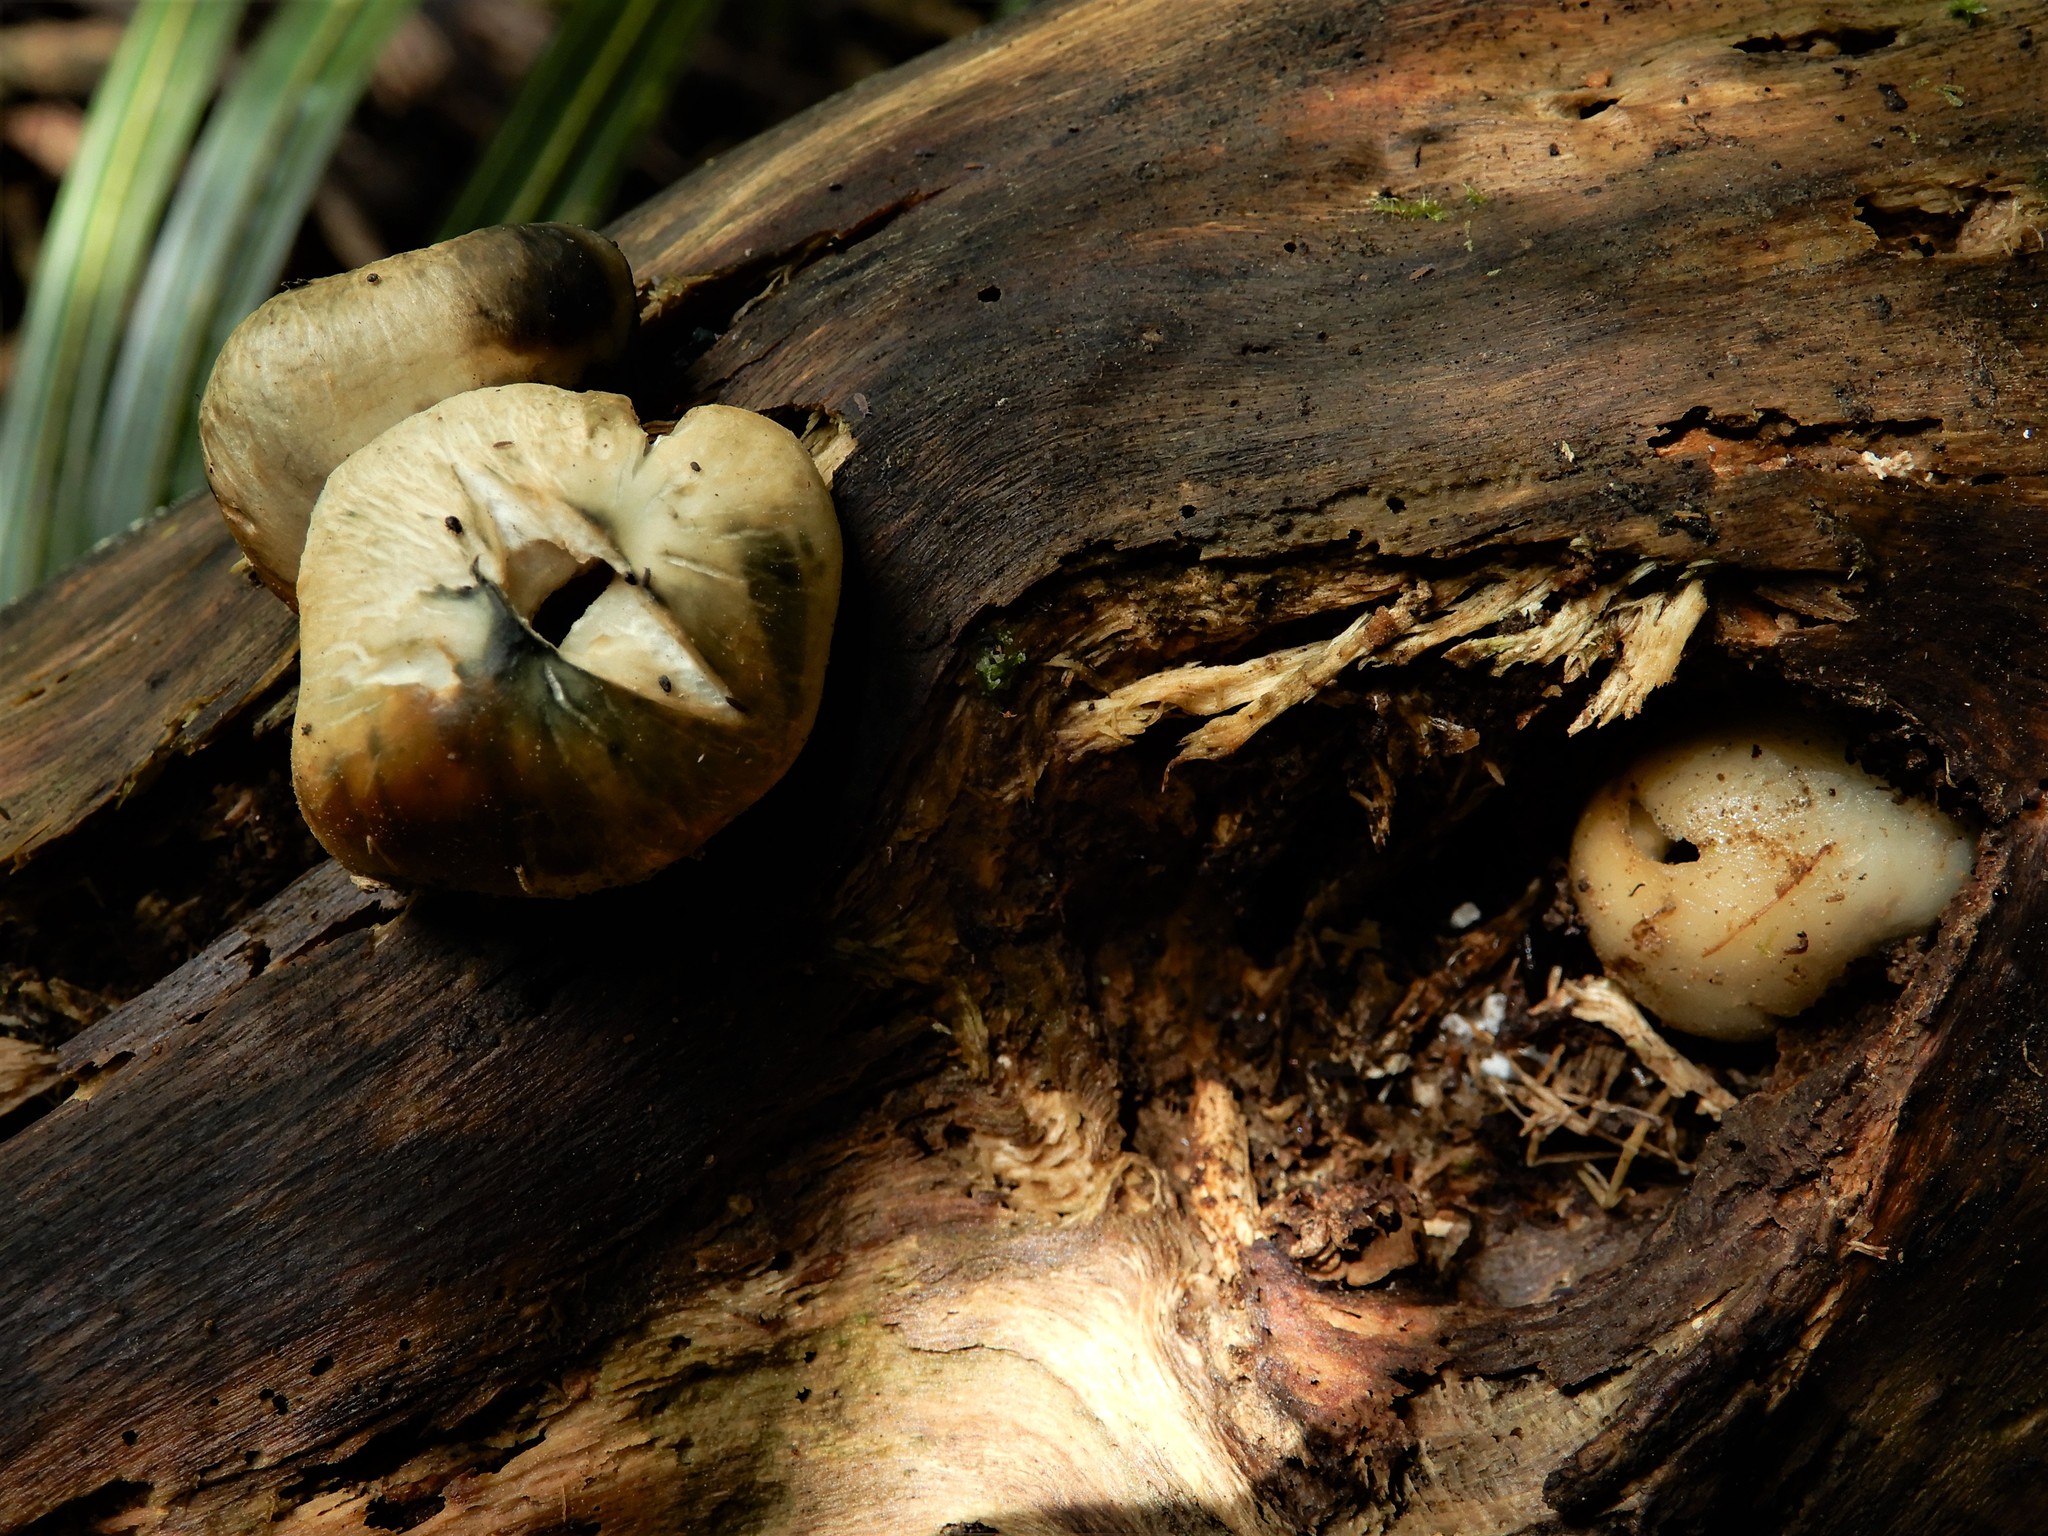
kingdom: Fungi
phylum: Basidiomycota
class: Agaricomycetes
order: Agaricales
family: Hymenogastraceae
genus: Psilocybe
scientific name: Psilocybe weraroa
